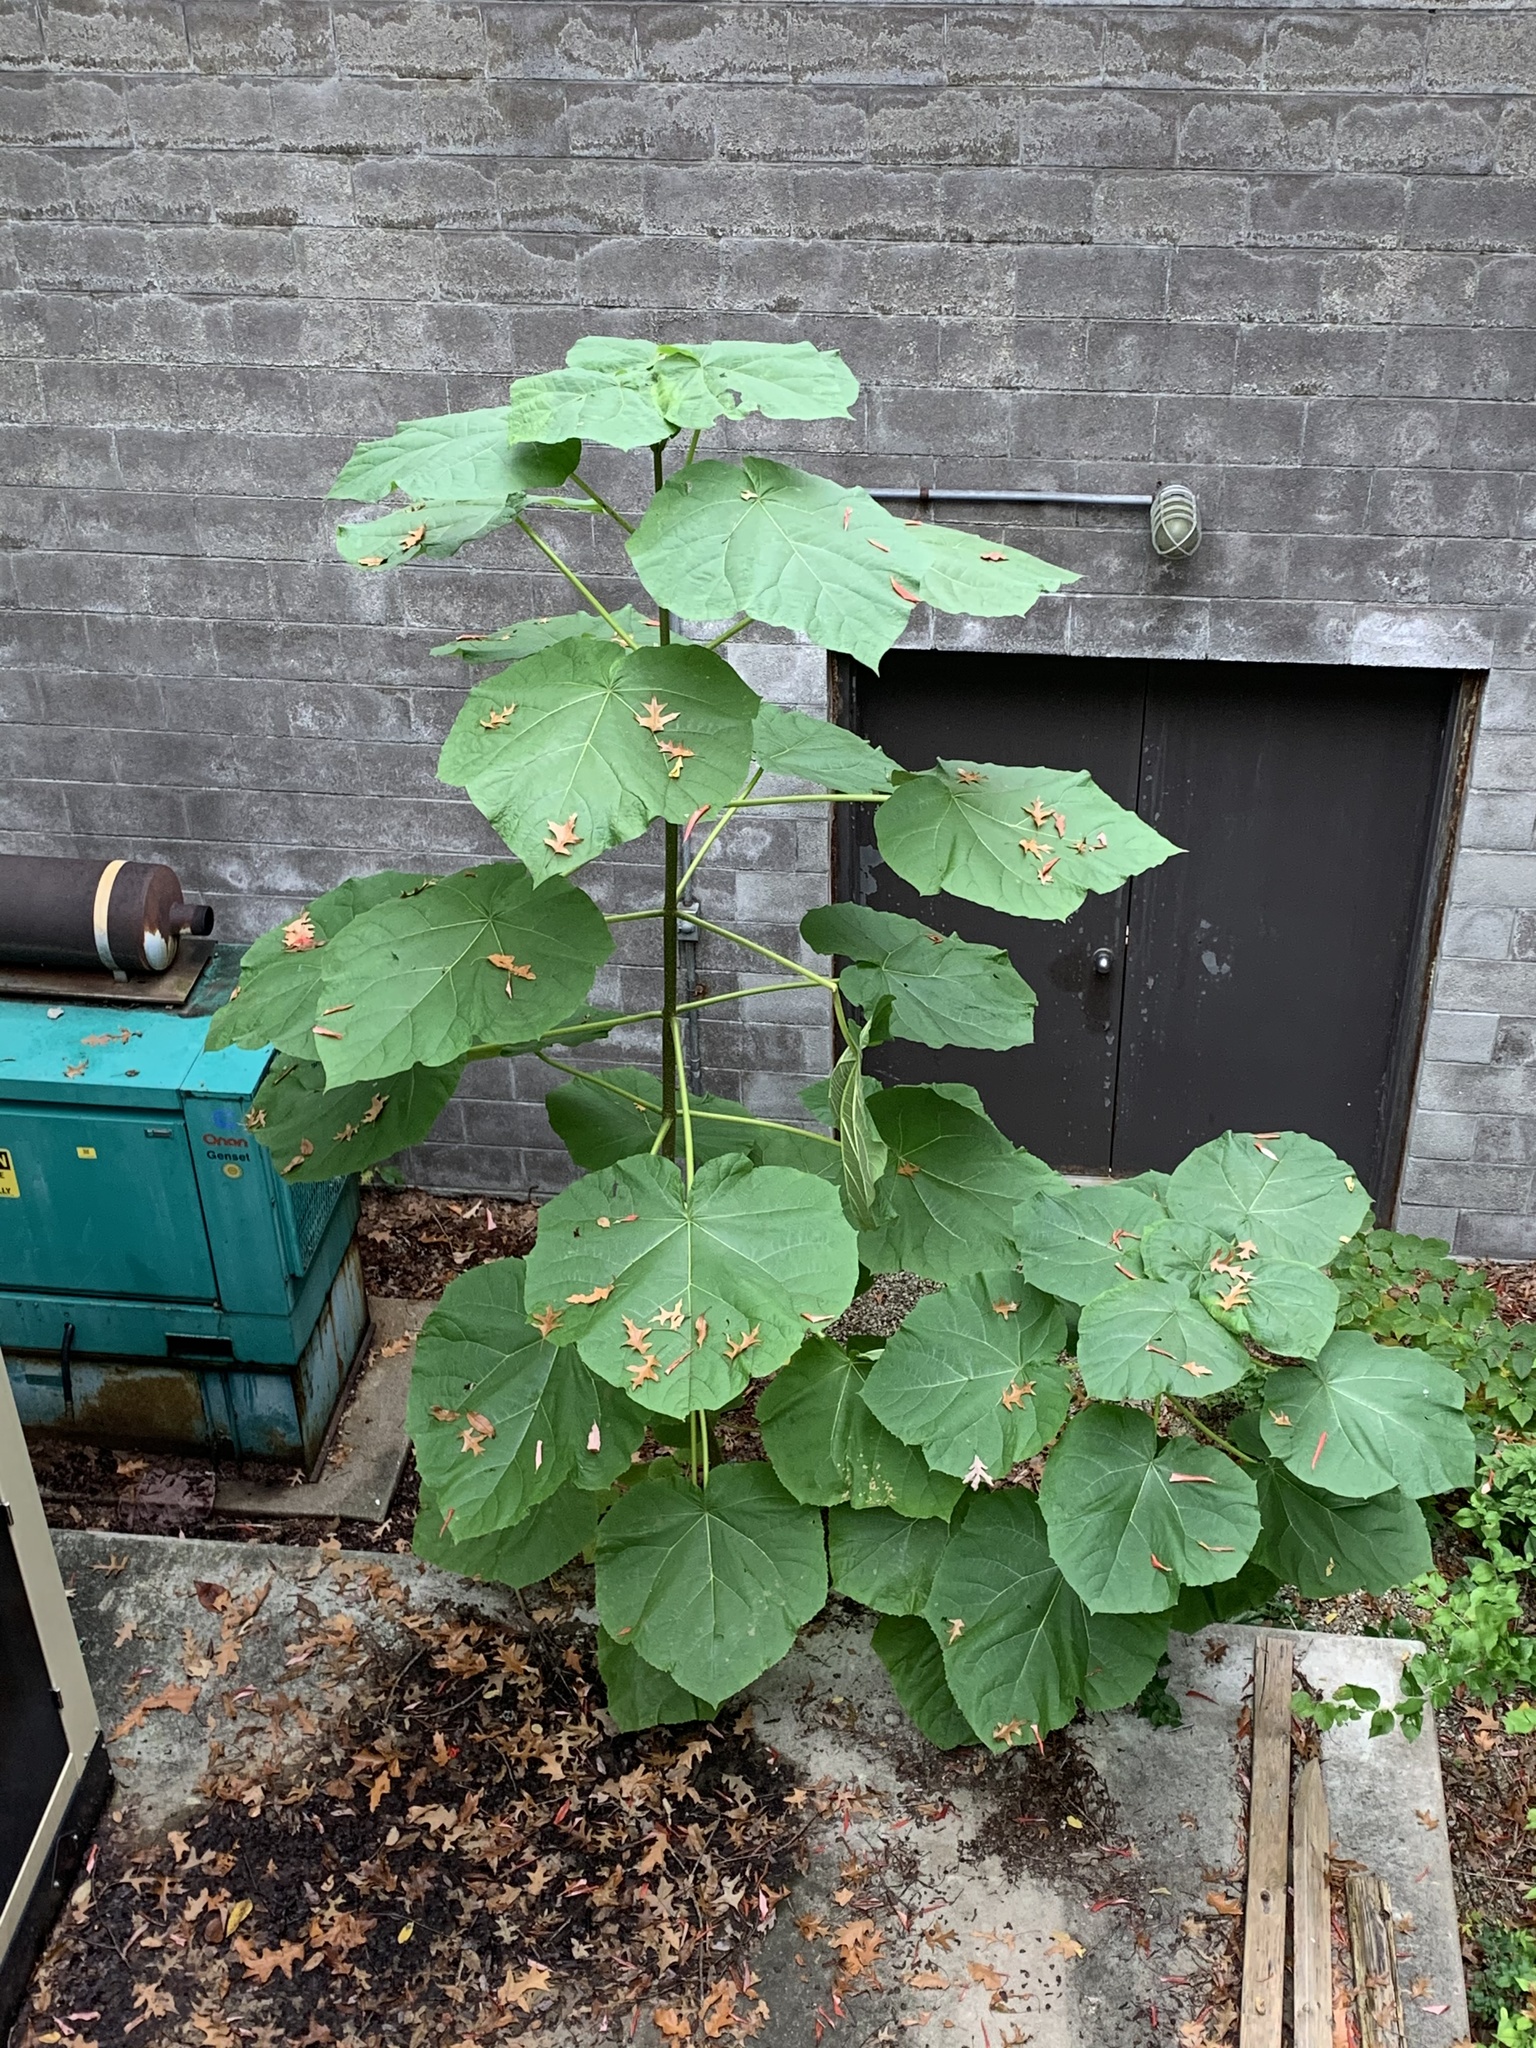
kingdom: Plantae
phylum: Tracheophyta
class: Magnoliopsida
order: Lamiales
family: Paulowniaceae
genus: Paulownia
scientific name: Paulownia tomentosa
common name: Foxglove-tree
